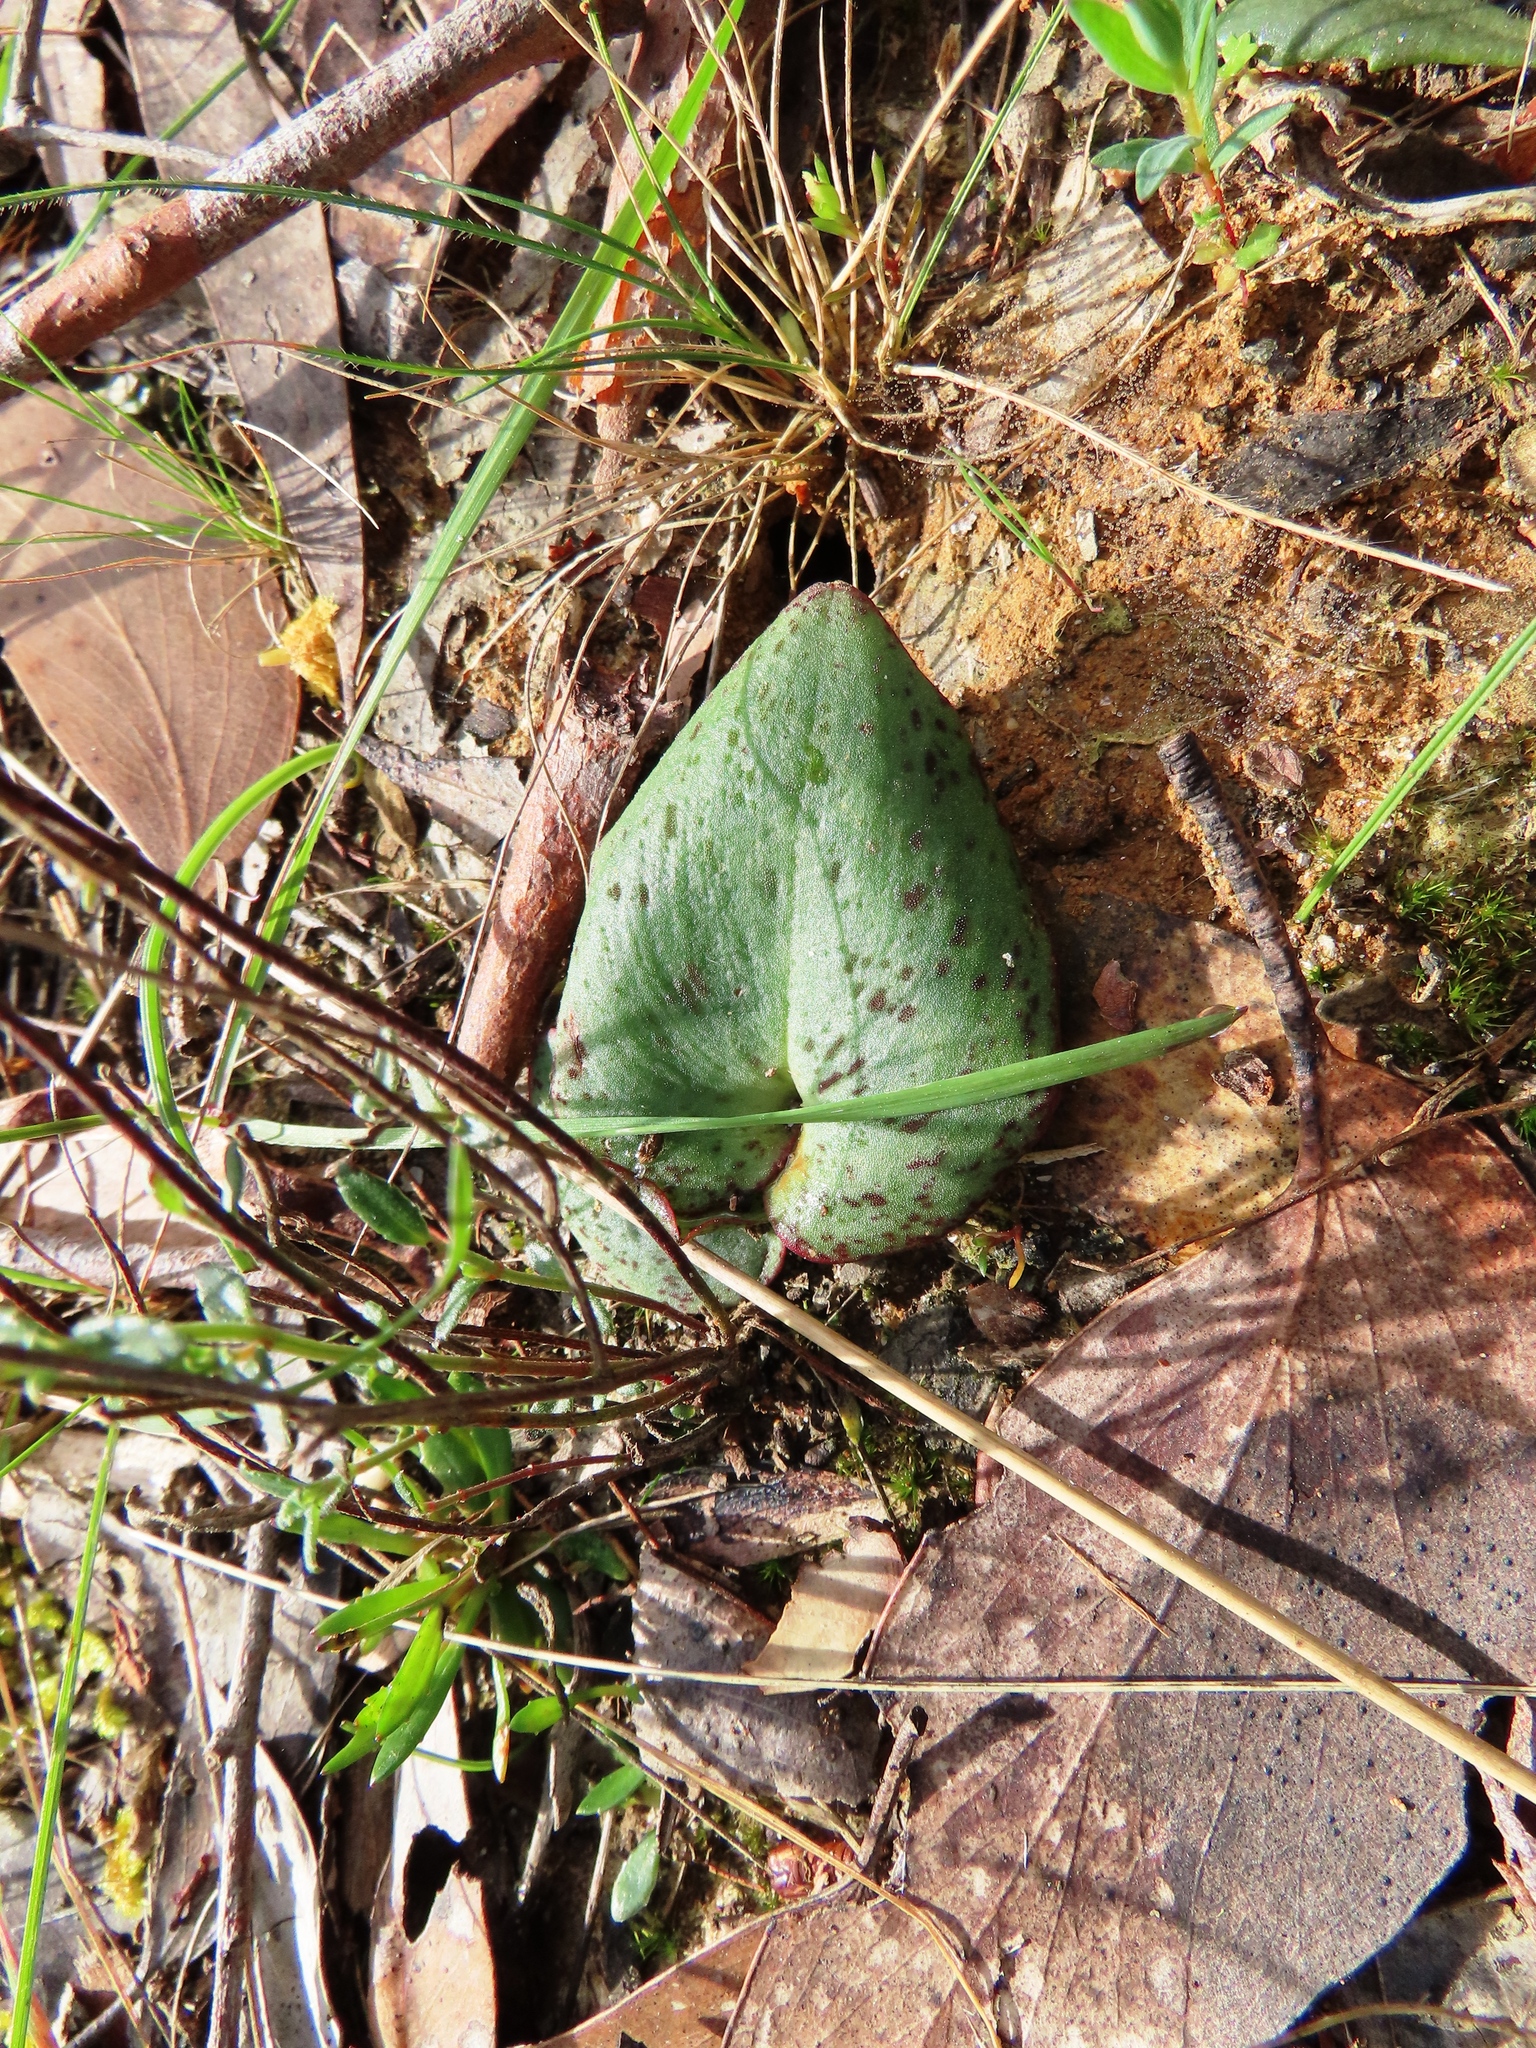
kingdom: Plantae
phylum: Tracheophyta
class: Liliopsida
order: Asparagales
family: Orchidaceae
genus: Pyrorchis
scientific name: Pyrorchis nigricans
